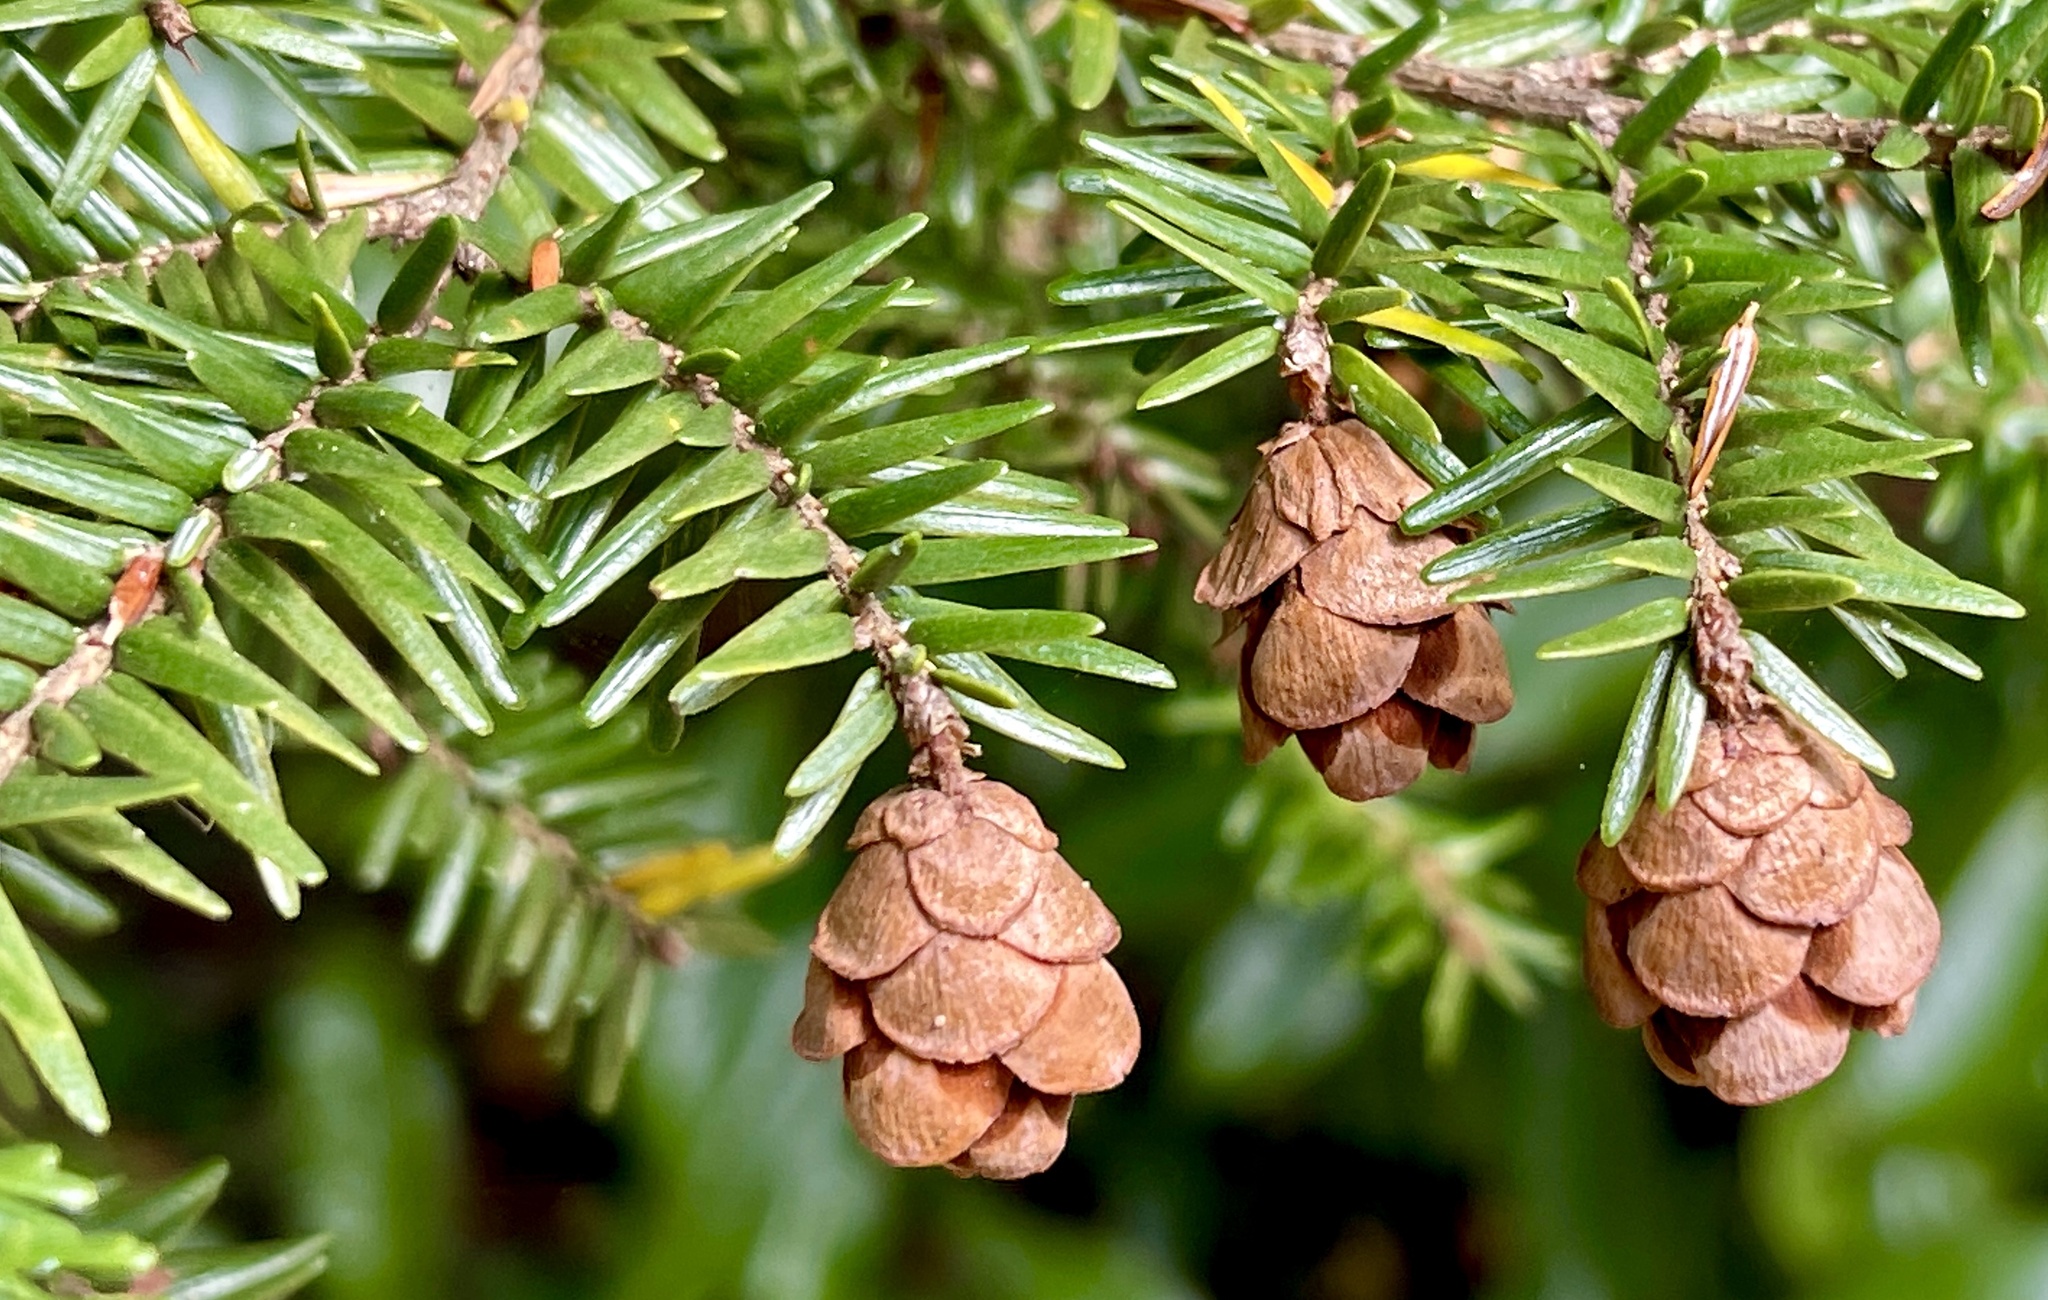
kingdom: Plantae
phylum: Tracheophyta
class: Pinopsida
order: Pinales
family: Pinaceae
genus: Tsuga
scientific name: Tsuga canadensis
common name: Eastern hemlock
